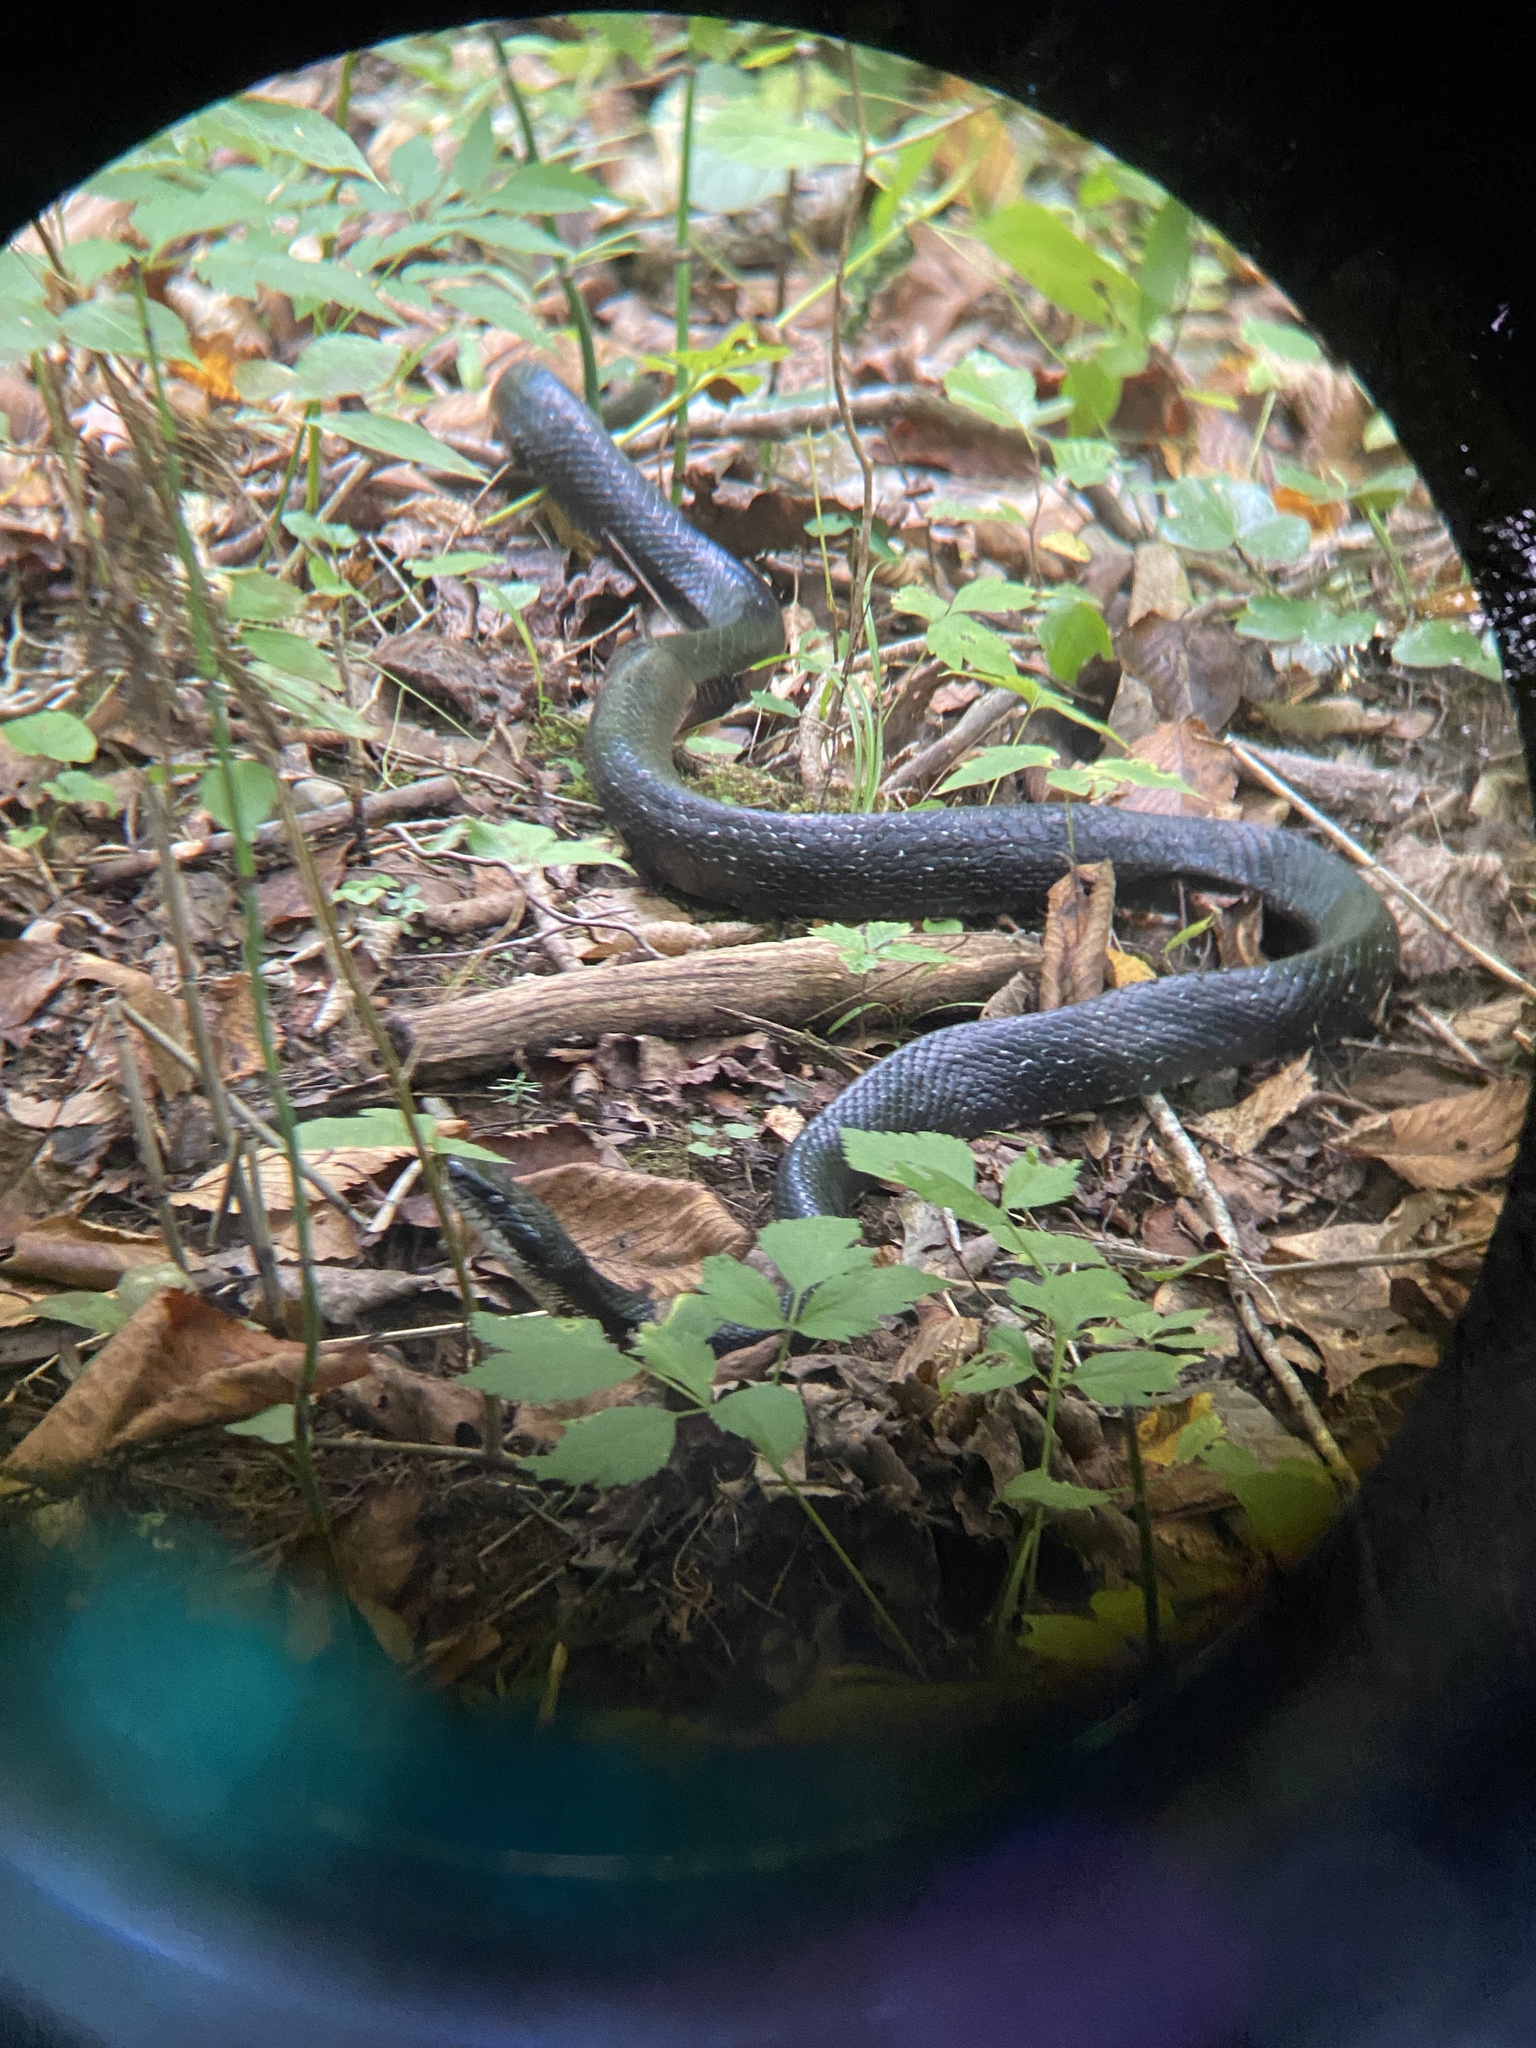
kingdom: Animalia
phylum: Chordata
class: Squamata
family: Colubridae
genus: Pantherophis
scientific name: Pantherophis
